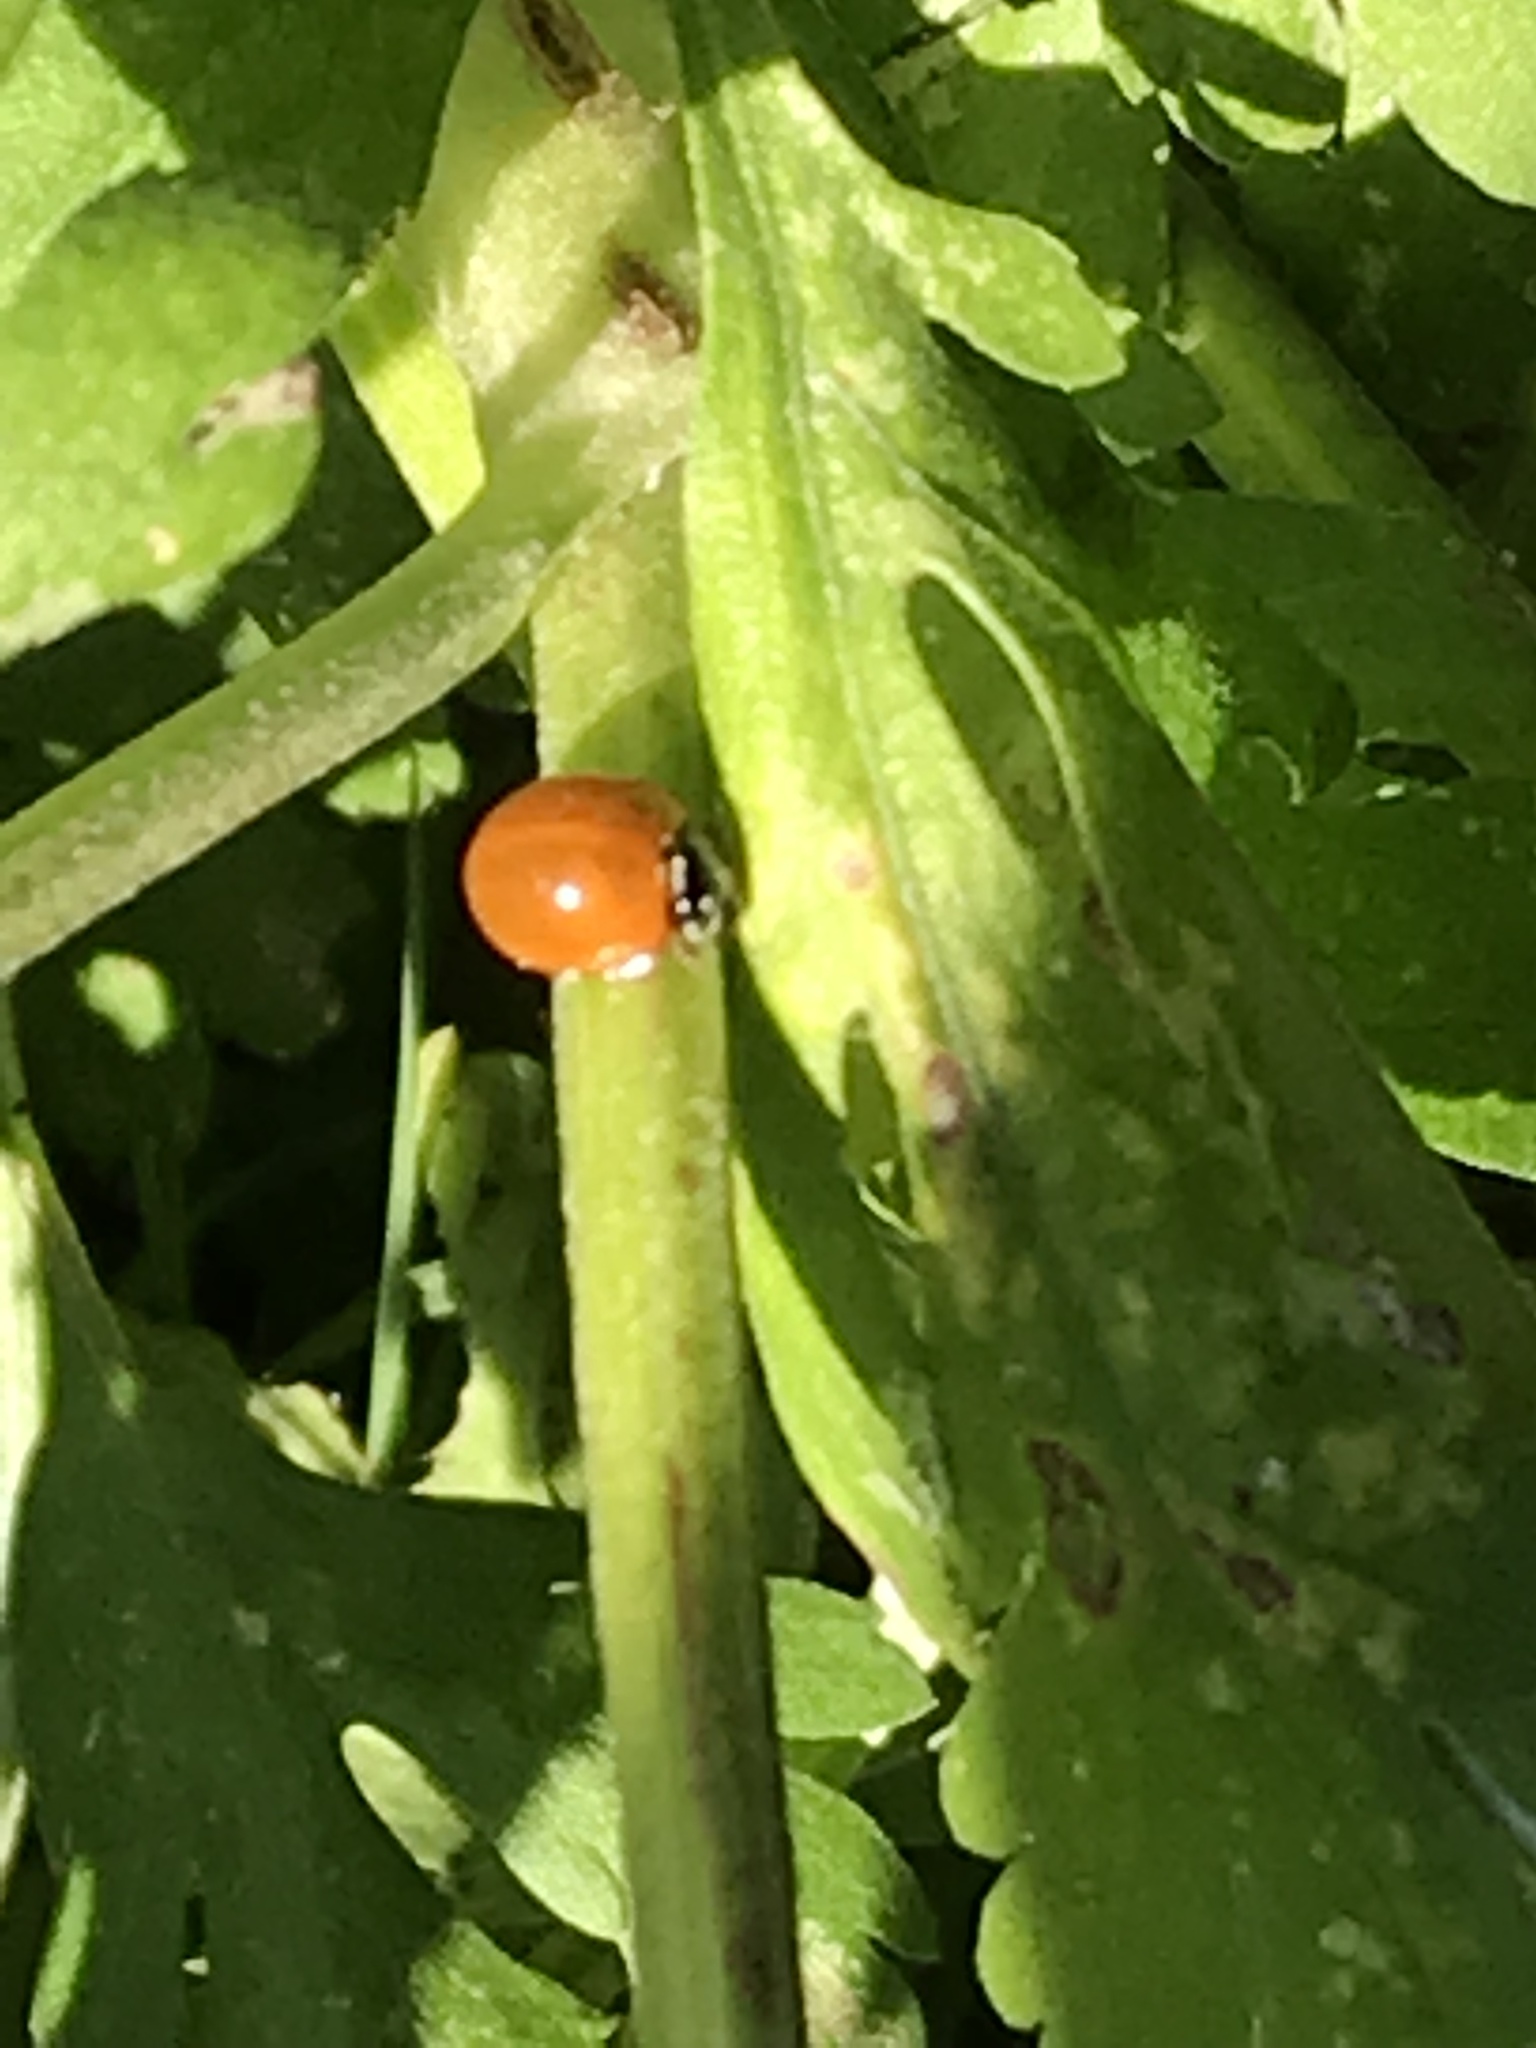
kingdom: Animalia
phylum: Arthropoda
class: Insecta
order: Coleoptera
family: Coccinellidae
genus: Cycloneda
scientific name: Cycloneda sanguinea
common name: Ladybird beetle
